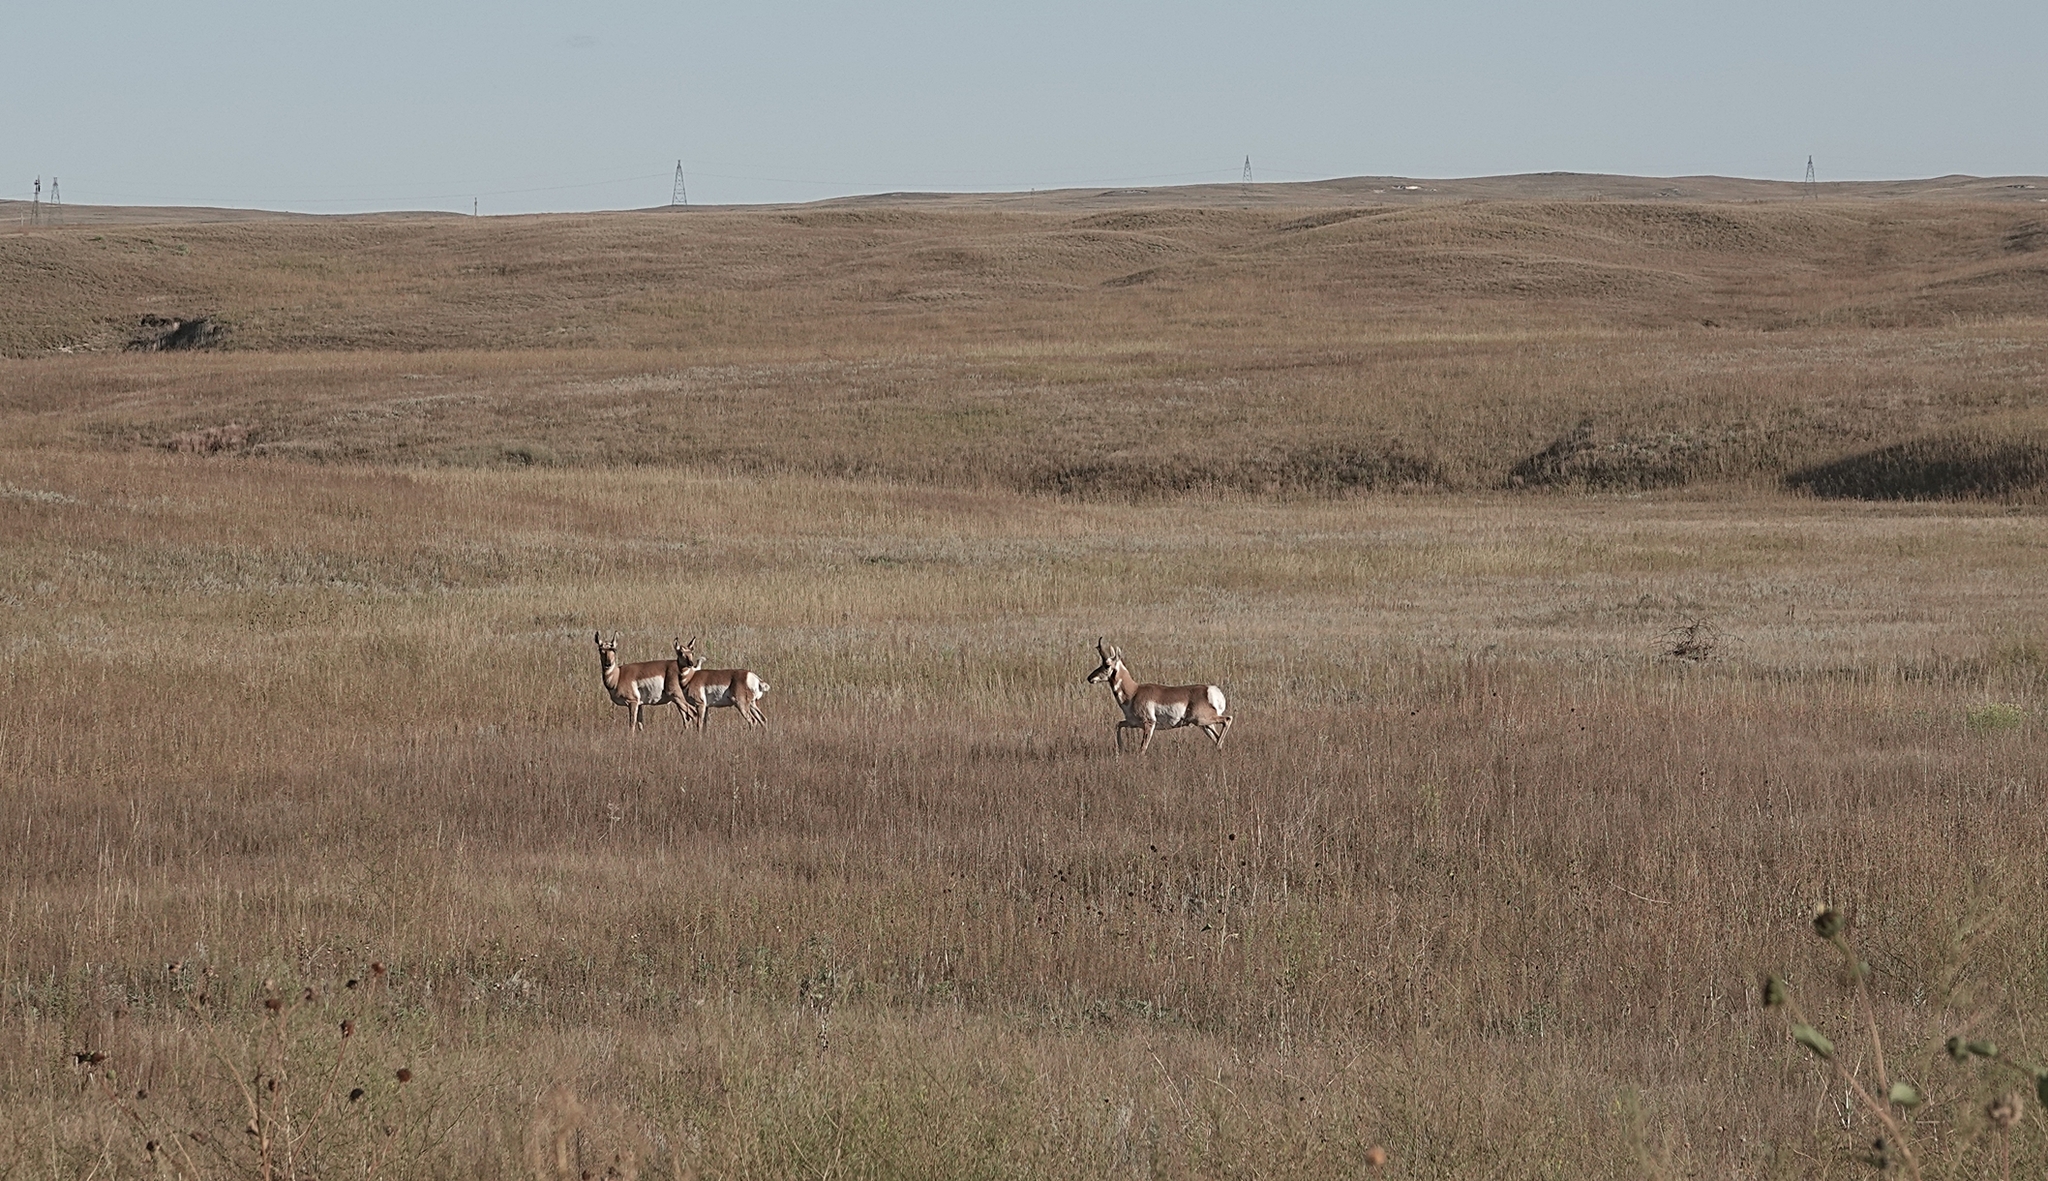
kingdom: Animalia
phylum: Chordata
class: Mammalia
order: Artiodactyla
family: Antilocapridae
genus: Antilocapra
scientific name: Antilocapra americana
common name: Pronghorn
